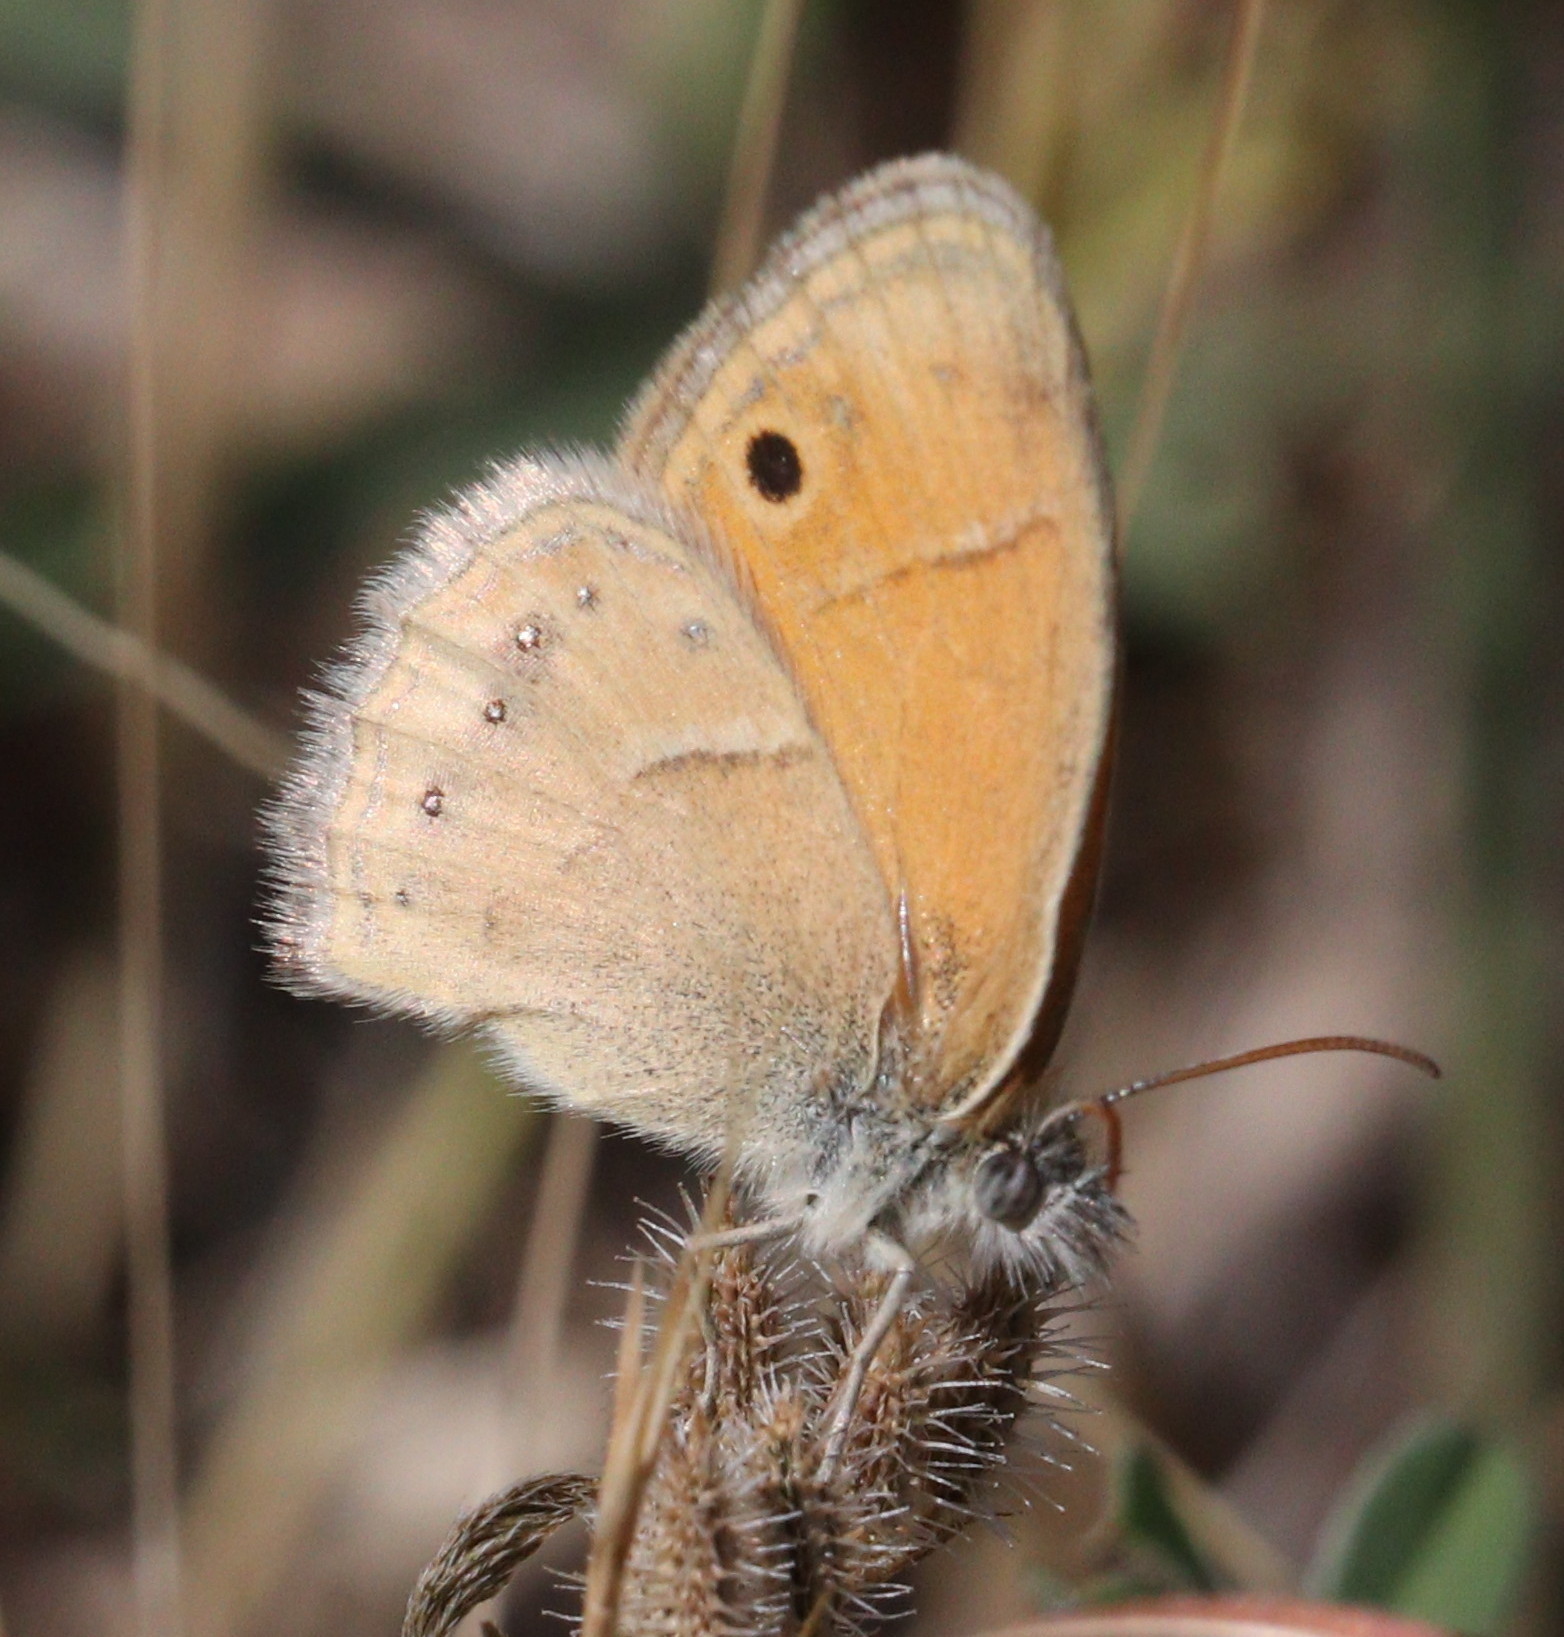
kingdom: Animalia
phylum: Arthropoda
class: Insecta
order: Lepidoptera
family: Nymphalidae
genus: Coenonympha
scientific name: Coenonympha saadi
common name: Small heath
